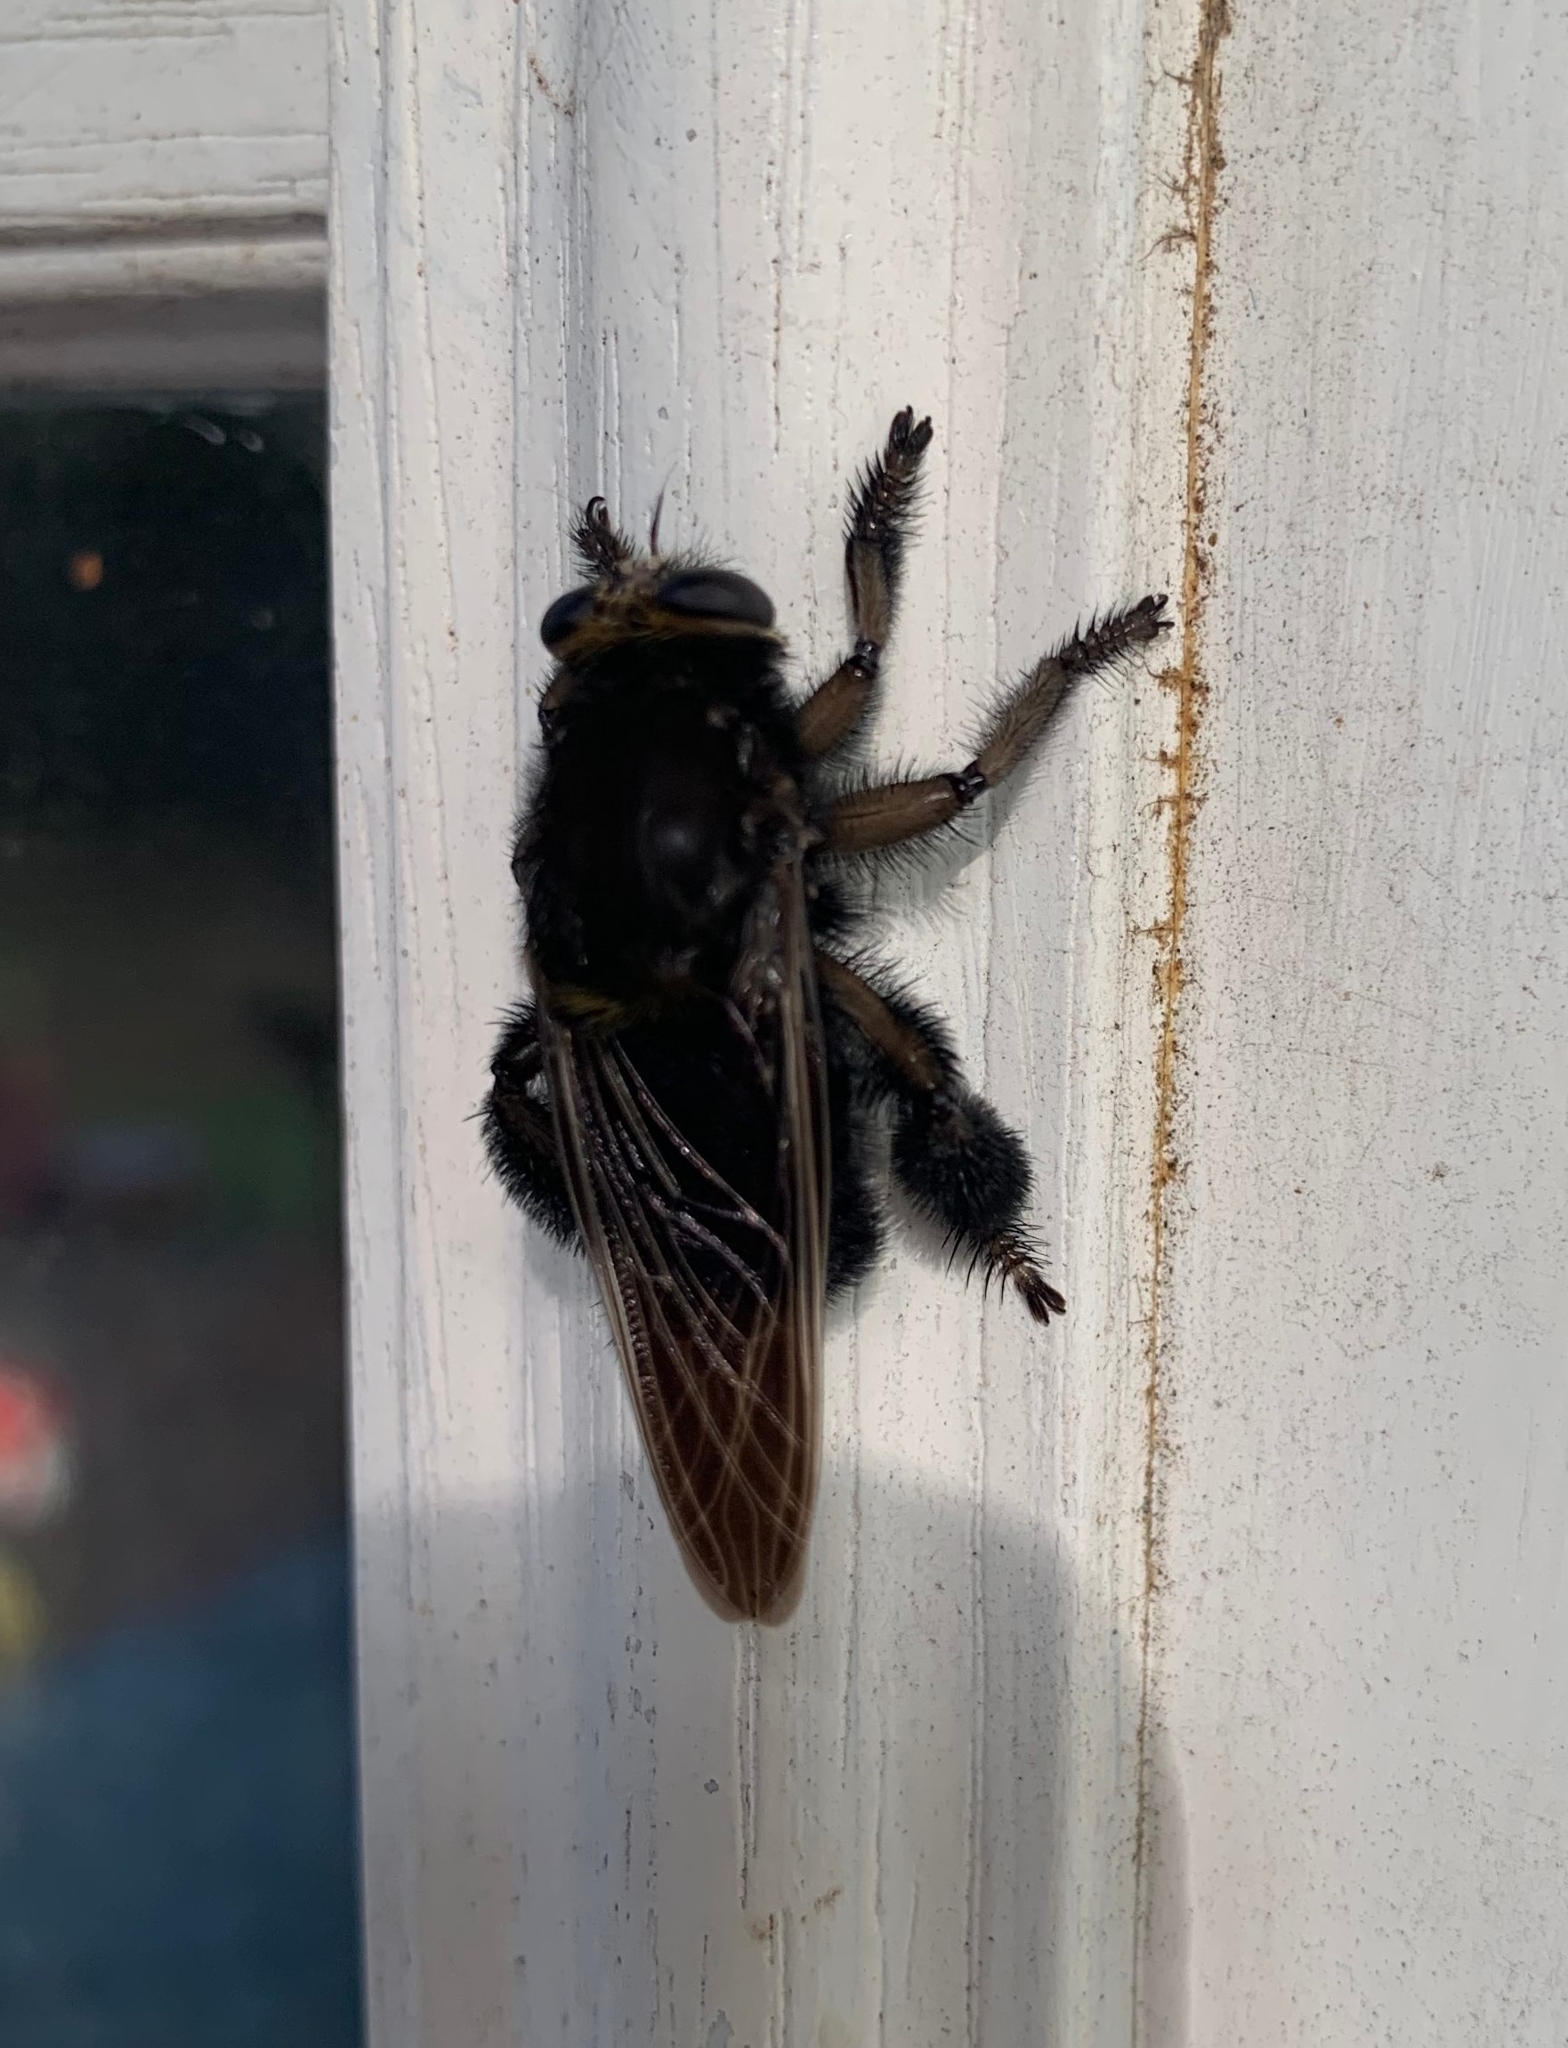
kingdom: Animalia
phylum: Arthropoda
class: Insecta
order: Diptera
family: Asilidae
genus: Mallophora
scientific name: Mallophora leschenaultii
